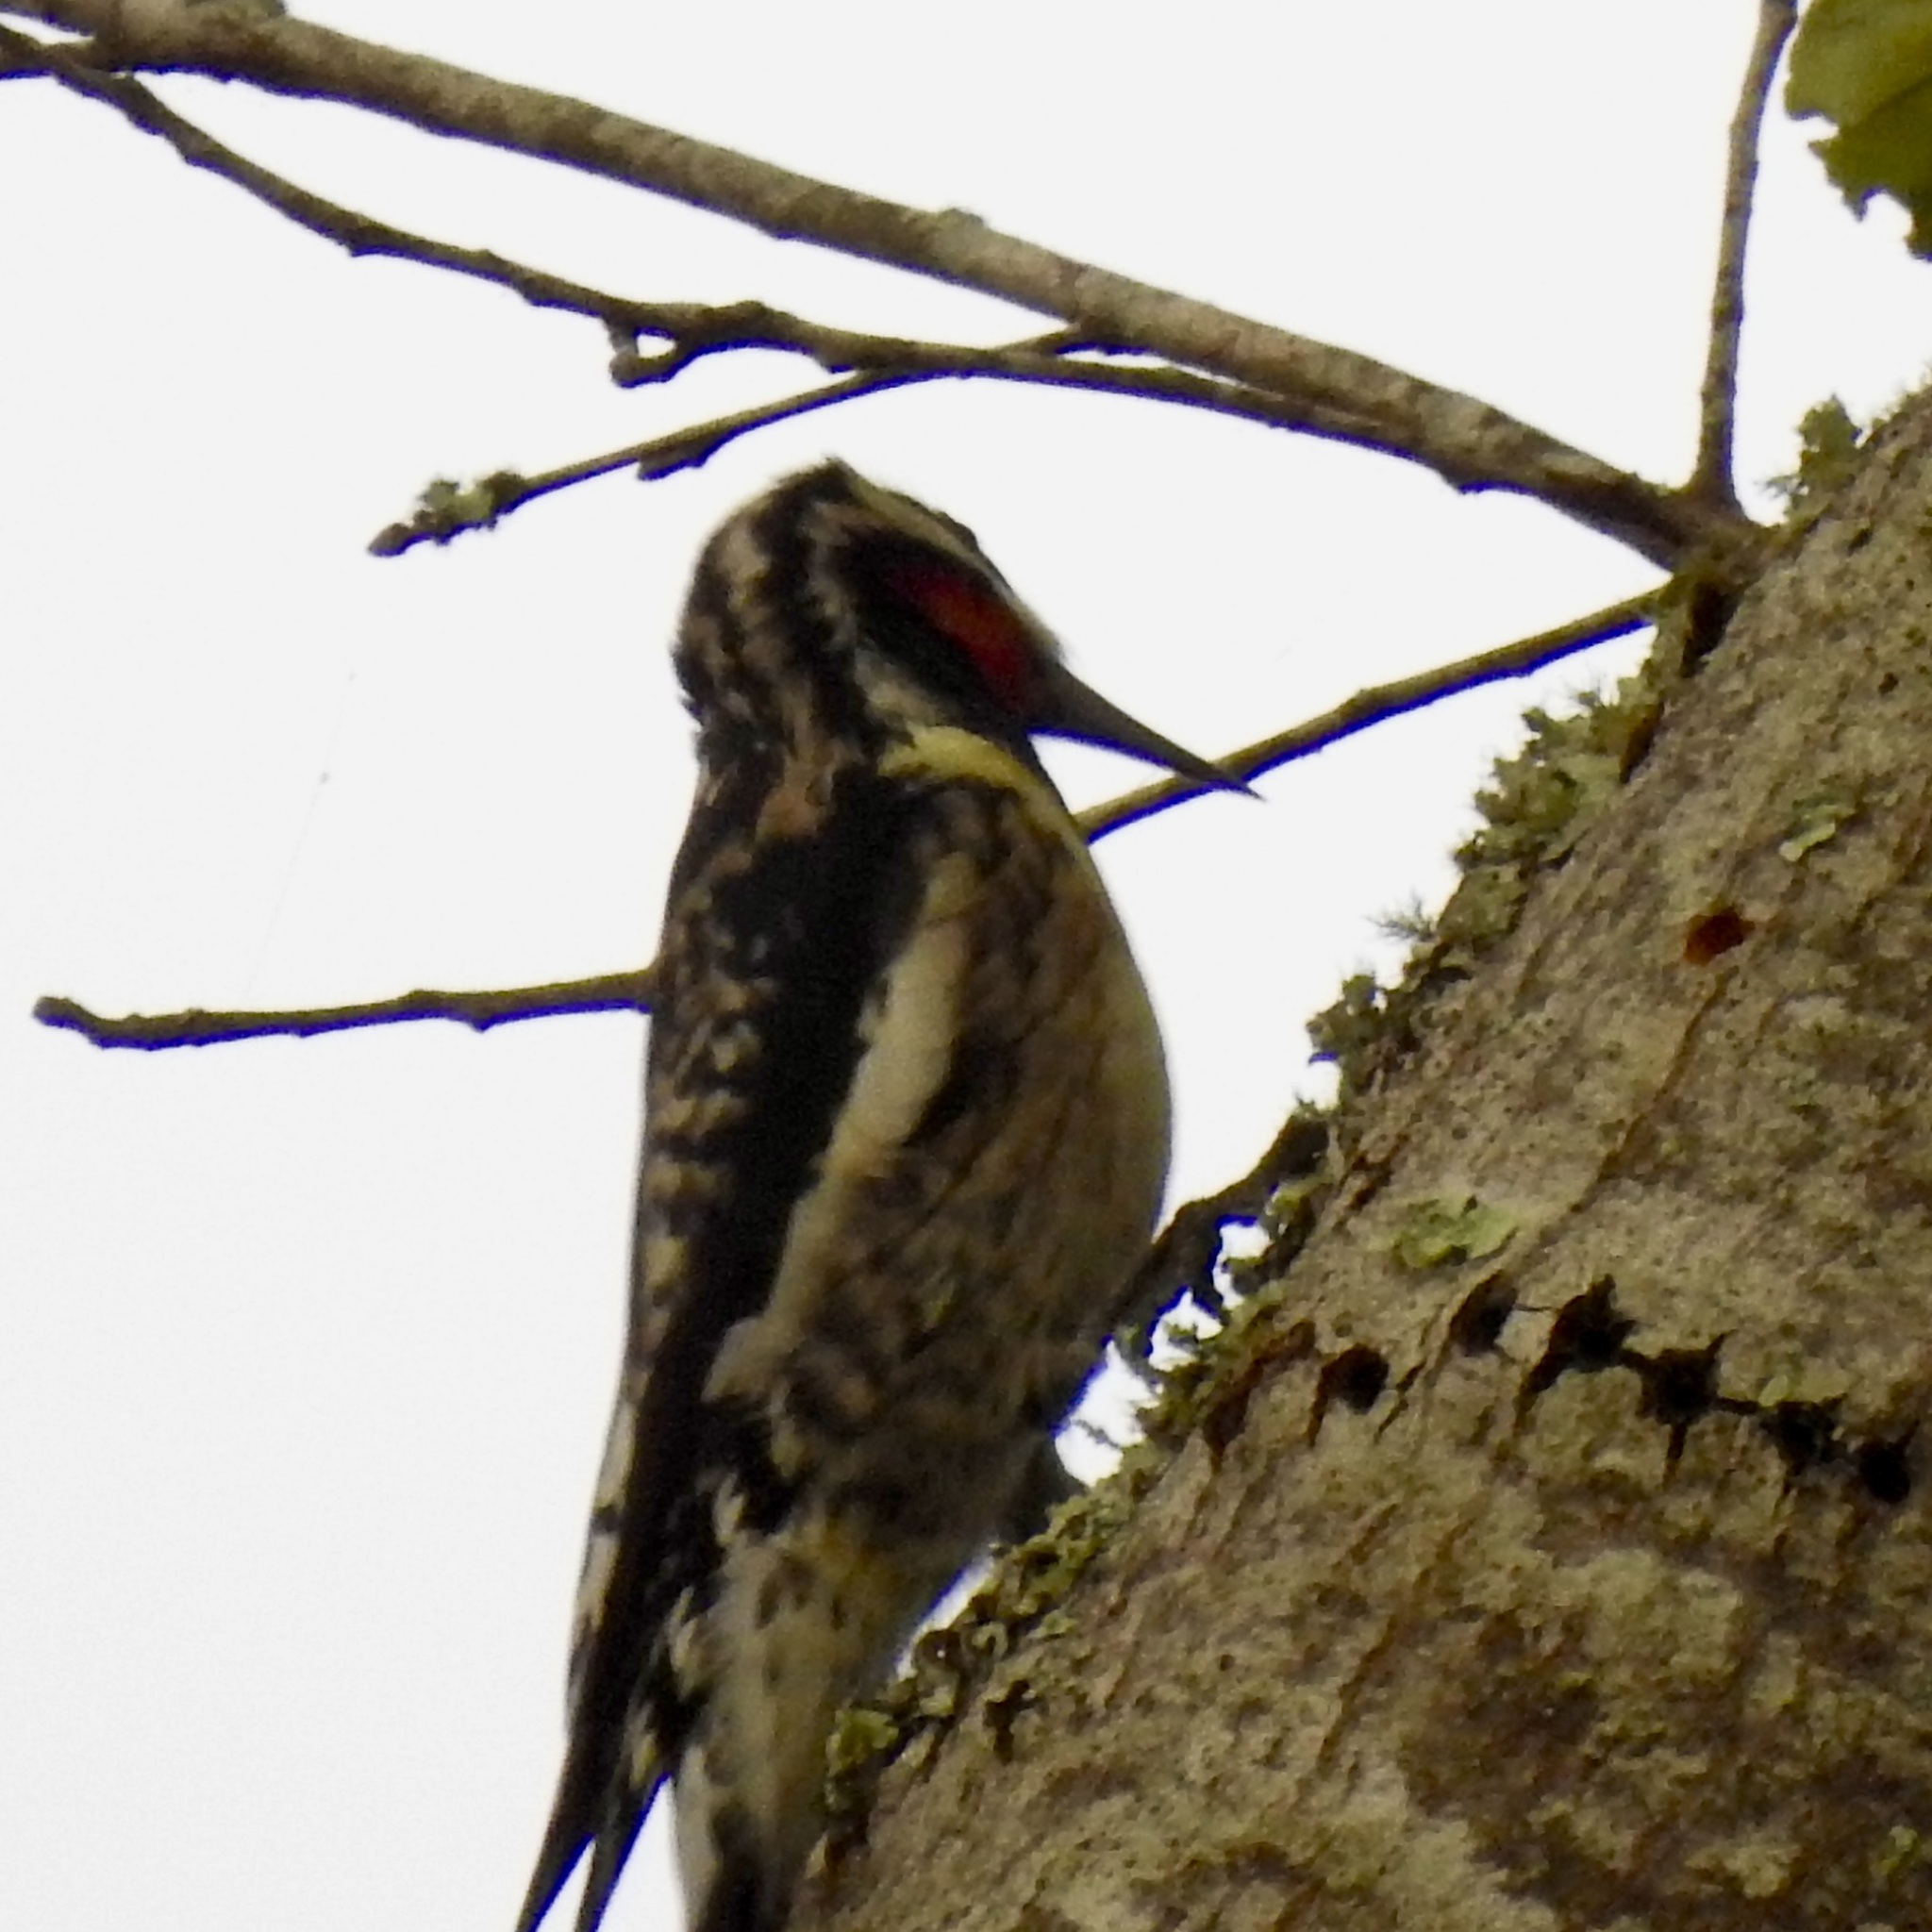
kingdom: Animalia
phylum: Chordata
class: Aves
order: Piciformes
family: Picidae
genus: Sphyrapicus
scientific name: Sphyrapicus varius
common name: Yellow-bellied sapsucker
